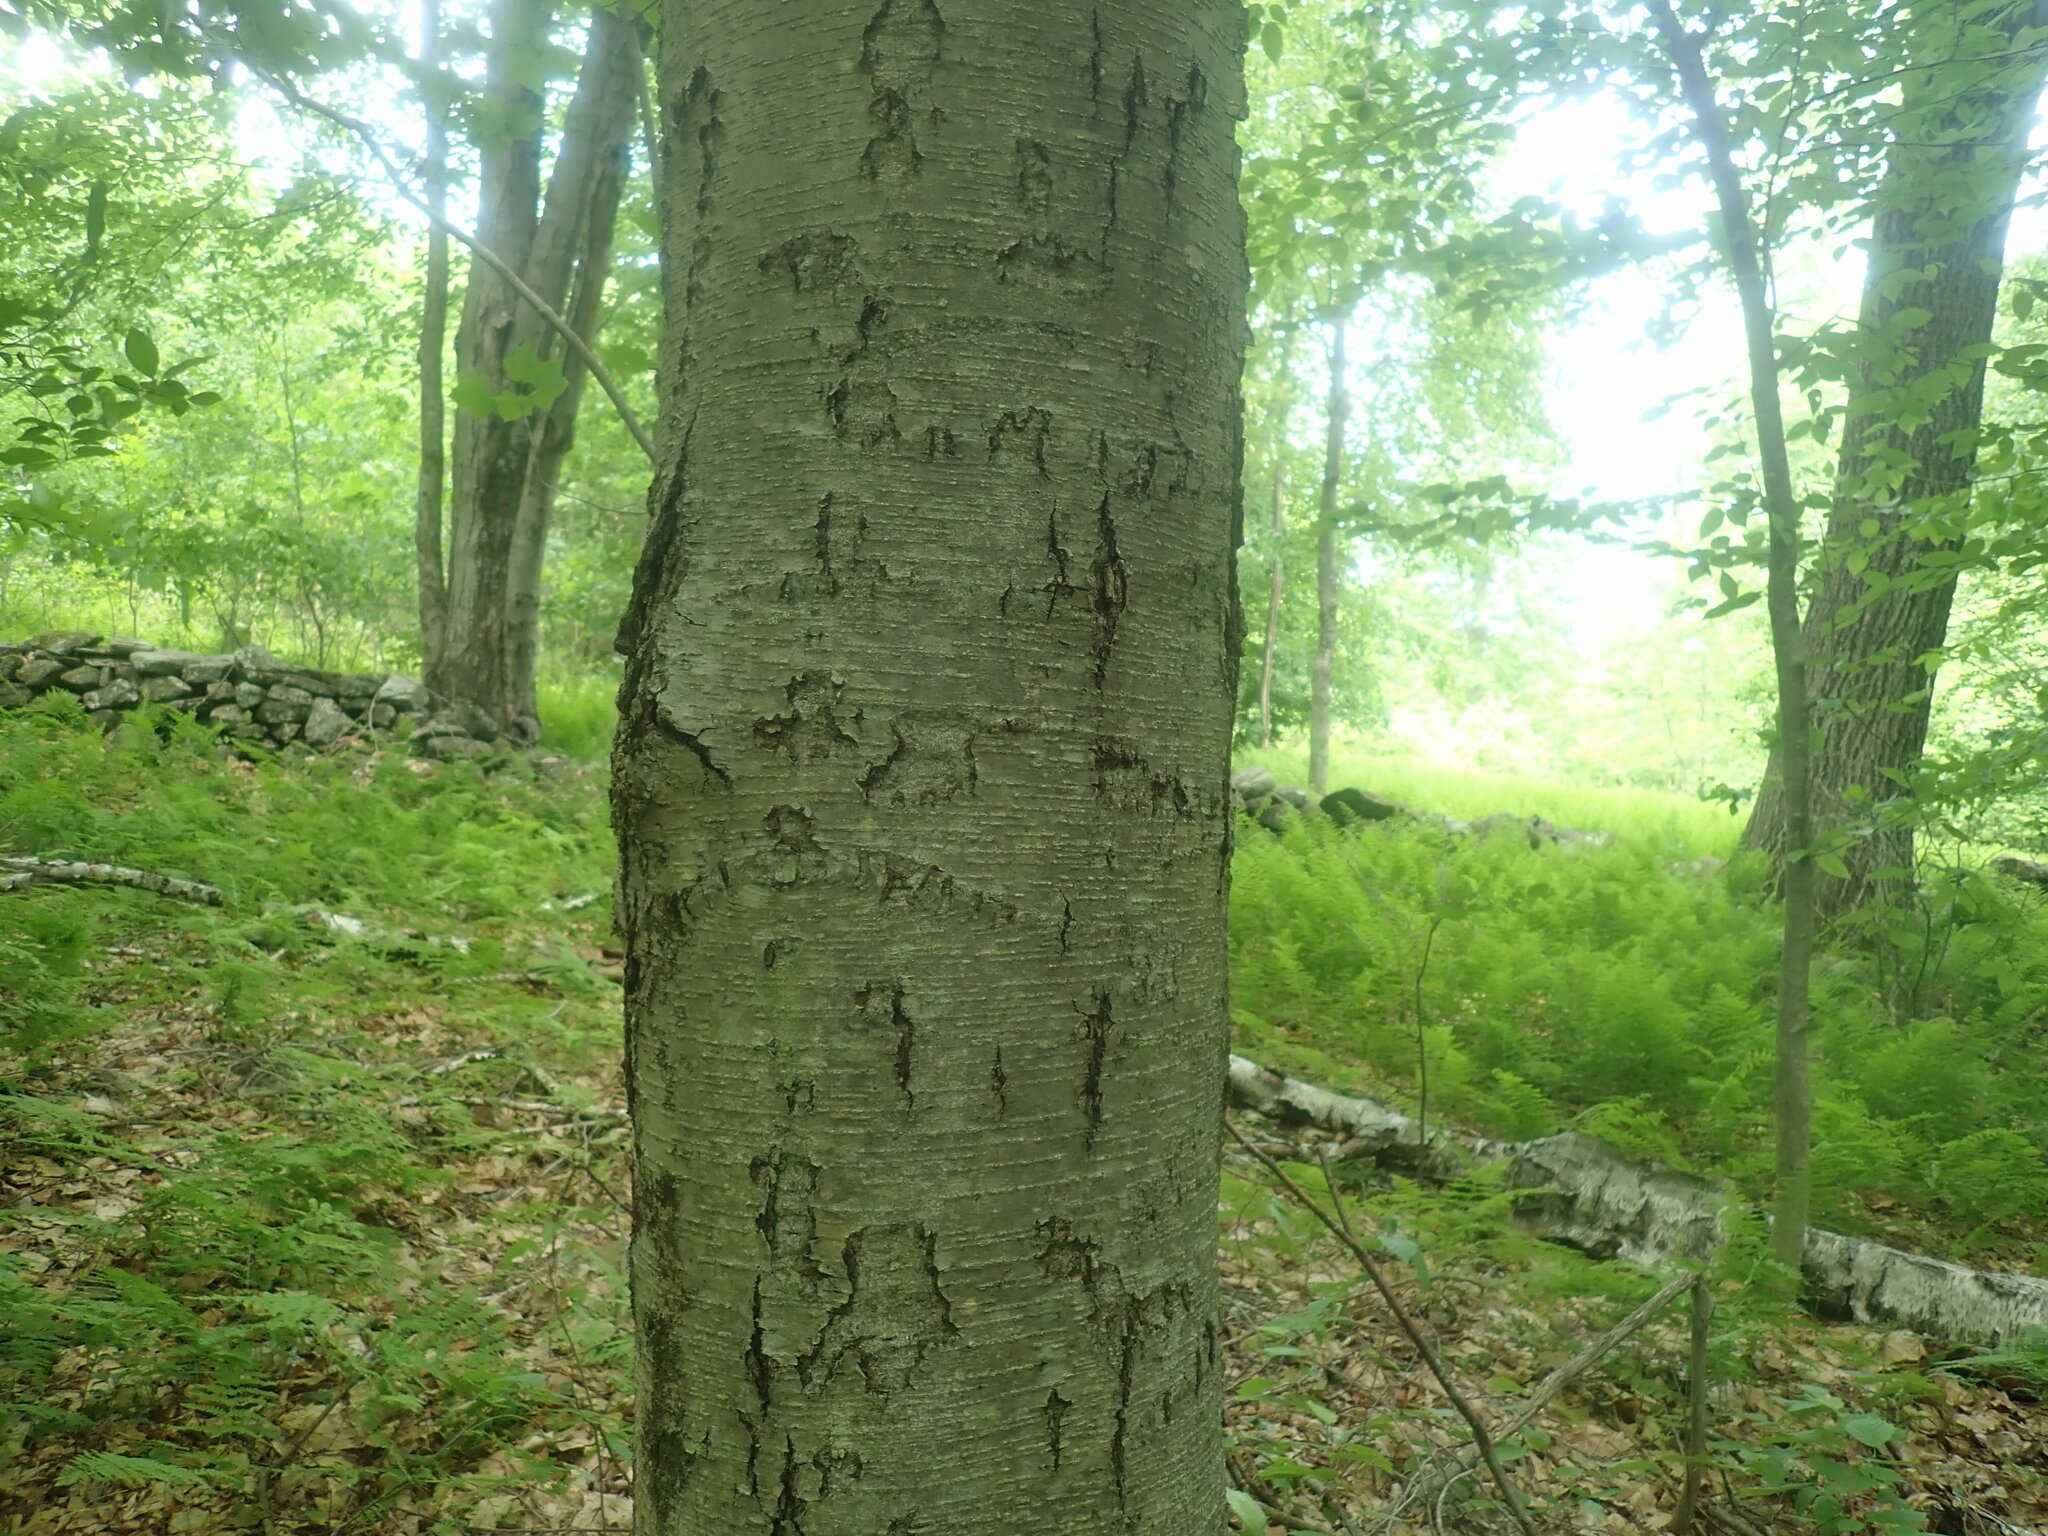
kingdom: Plantae
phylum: Tracheophyta
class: Magnoliopsida
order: Fagales
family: Betulaceae
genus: Betula
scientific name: Betula lenta
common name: Black birch
